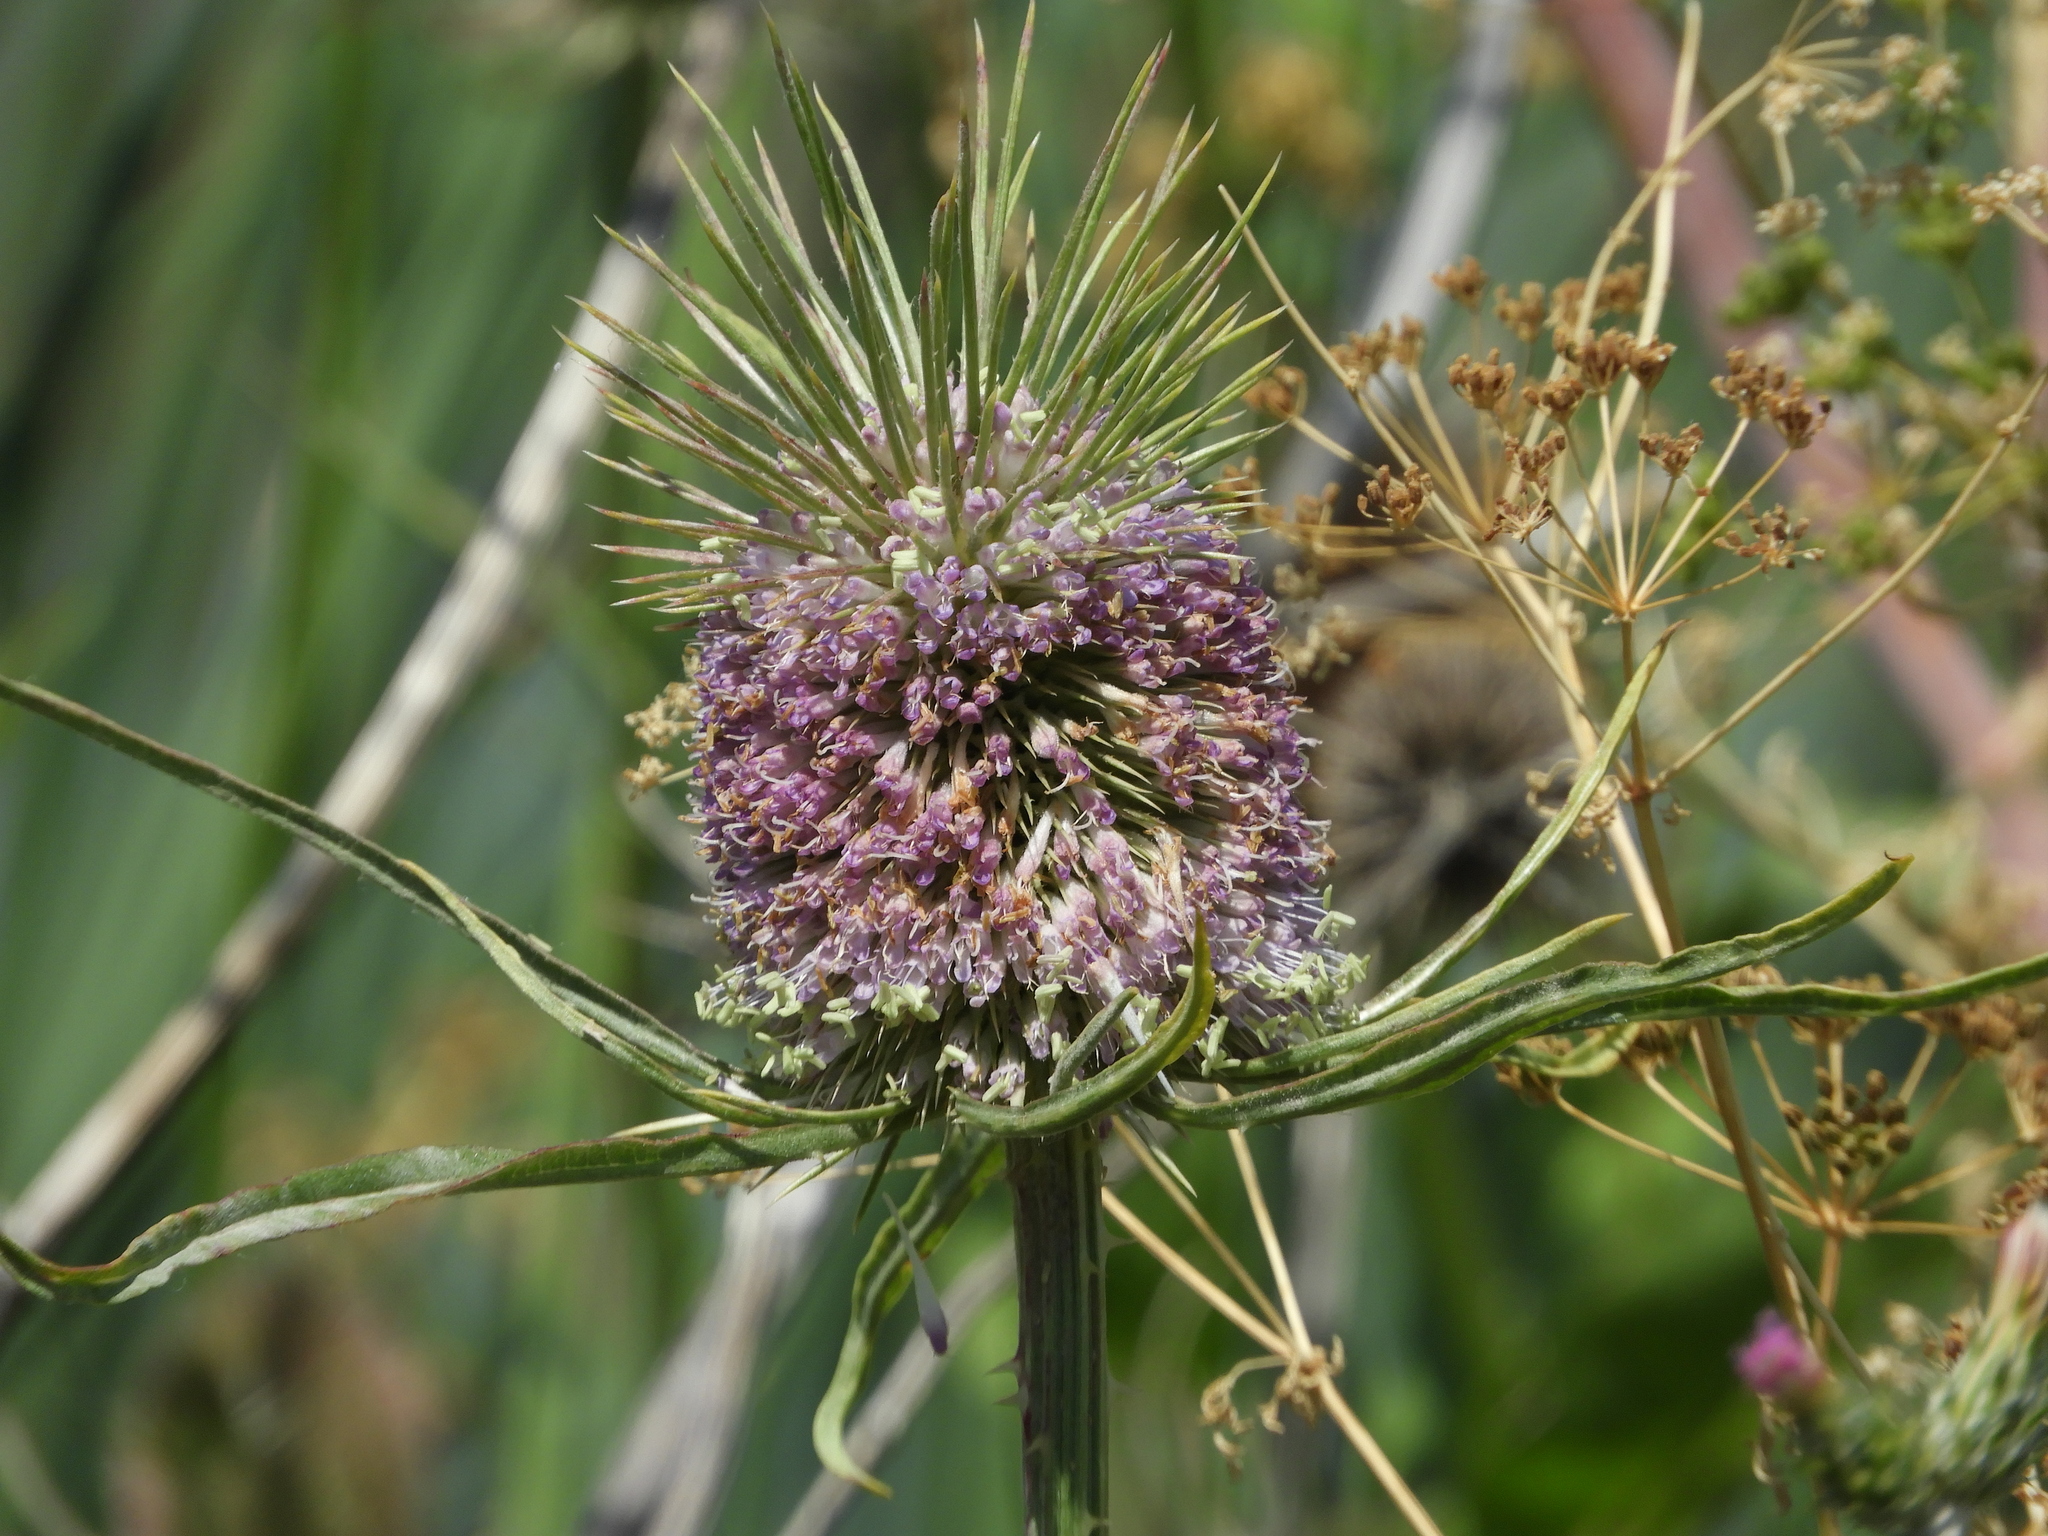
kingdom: Plantae
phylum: Tracheophyta
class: Magnoliopsida
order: Dipsacales
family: Caprifoliaceae
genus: Dipsacus
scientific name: Dipsacus fullonum
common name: Teasel
